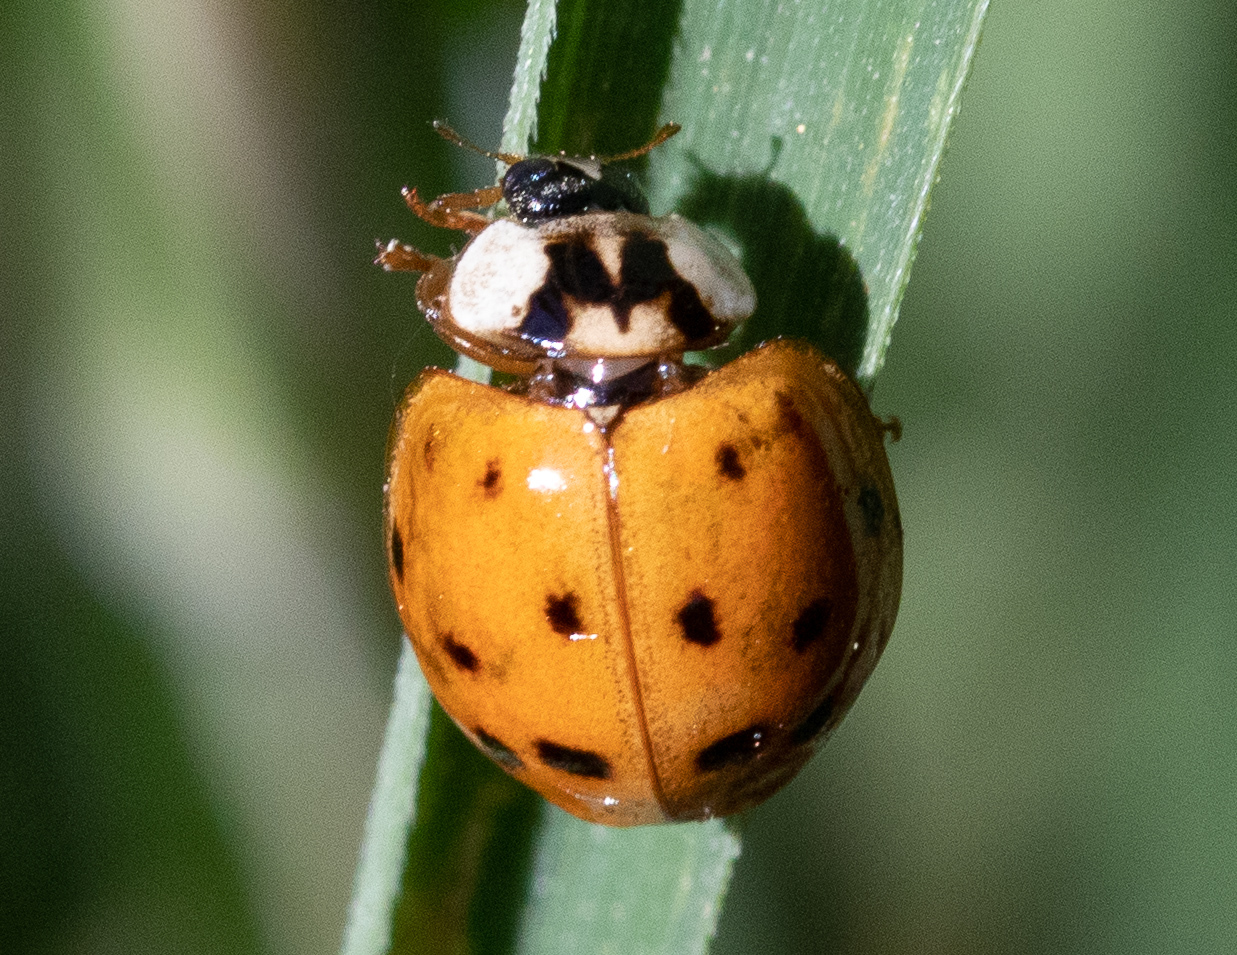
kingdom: Animalia
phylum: Arthropoda
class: Insecta
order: Coleoptera
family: Coccinellidae
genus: Harmonia
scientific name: Harmonia axyridis
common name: Harlequin ladybird
